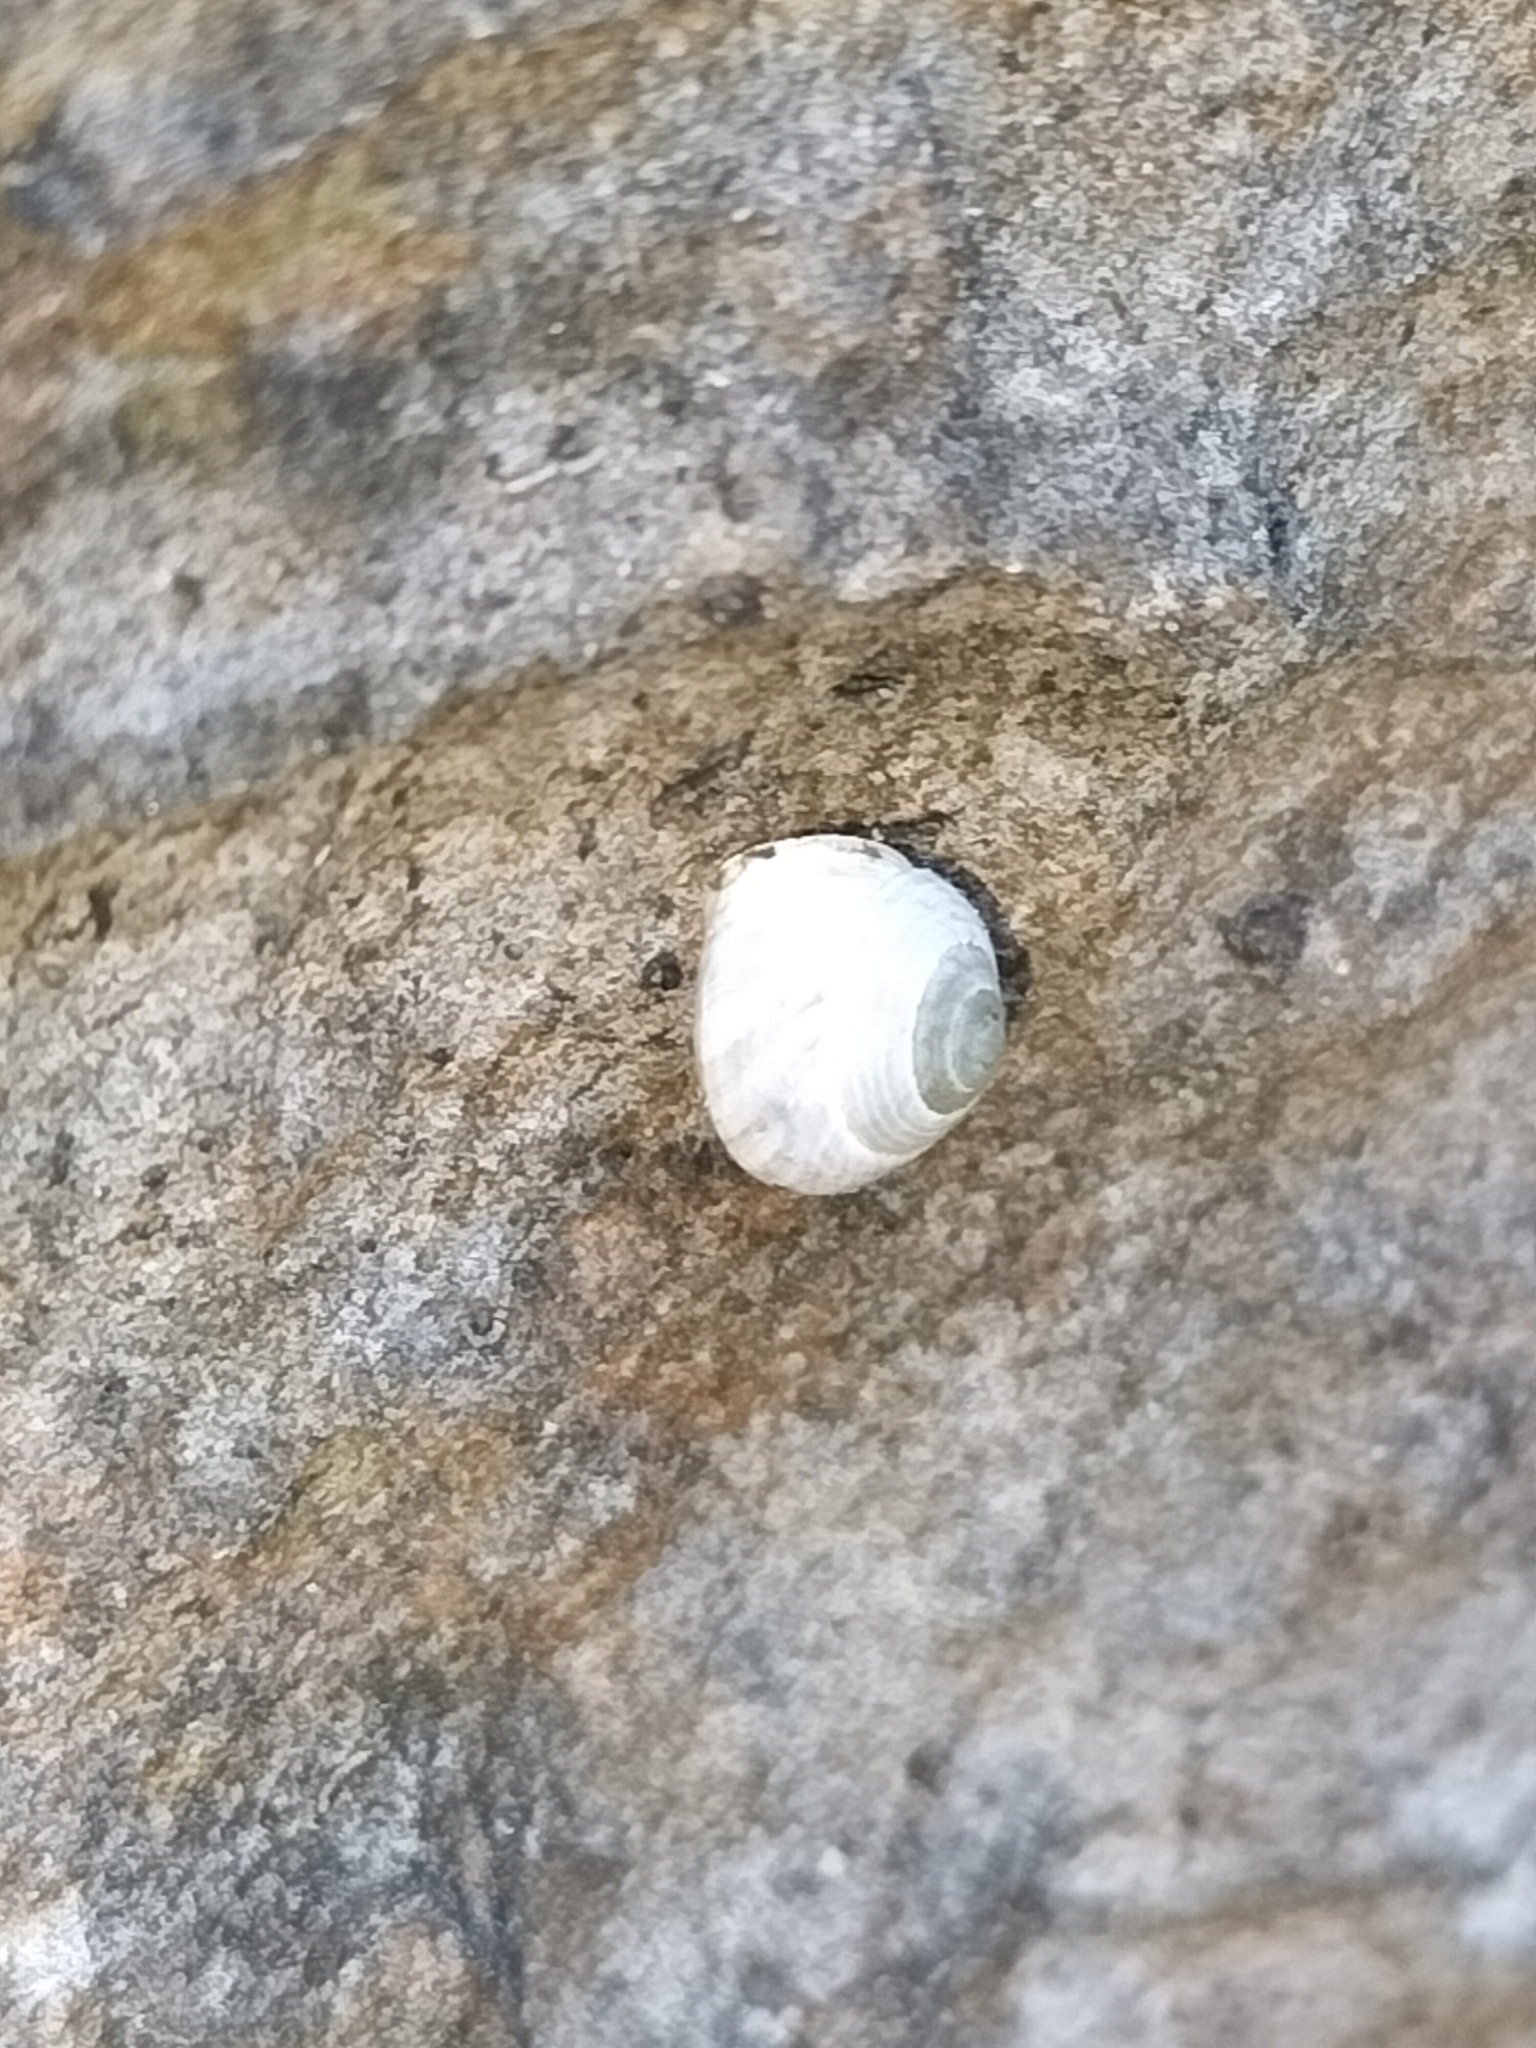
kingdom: Animalia
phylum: Mollusca
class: Gastropoda
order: Cycloneritida
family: Helicinidae
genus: Pleuropoma
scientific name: Pleuropoma extincta
